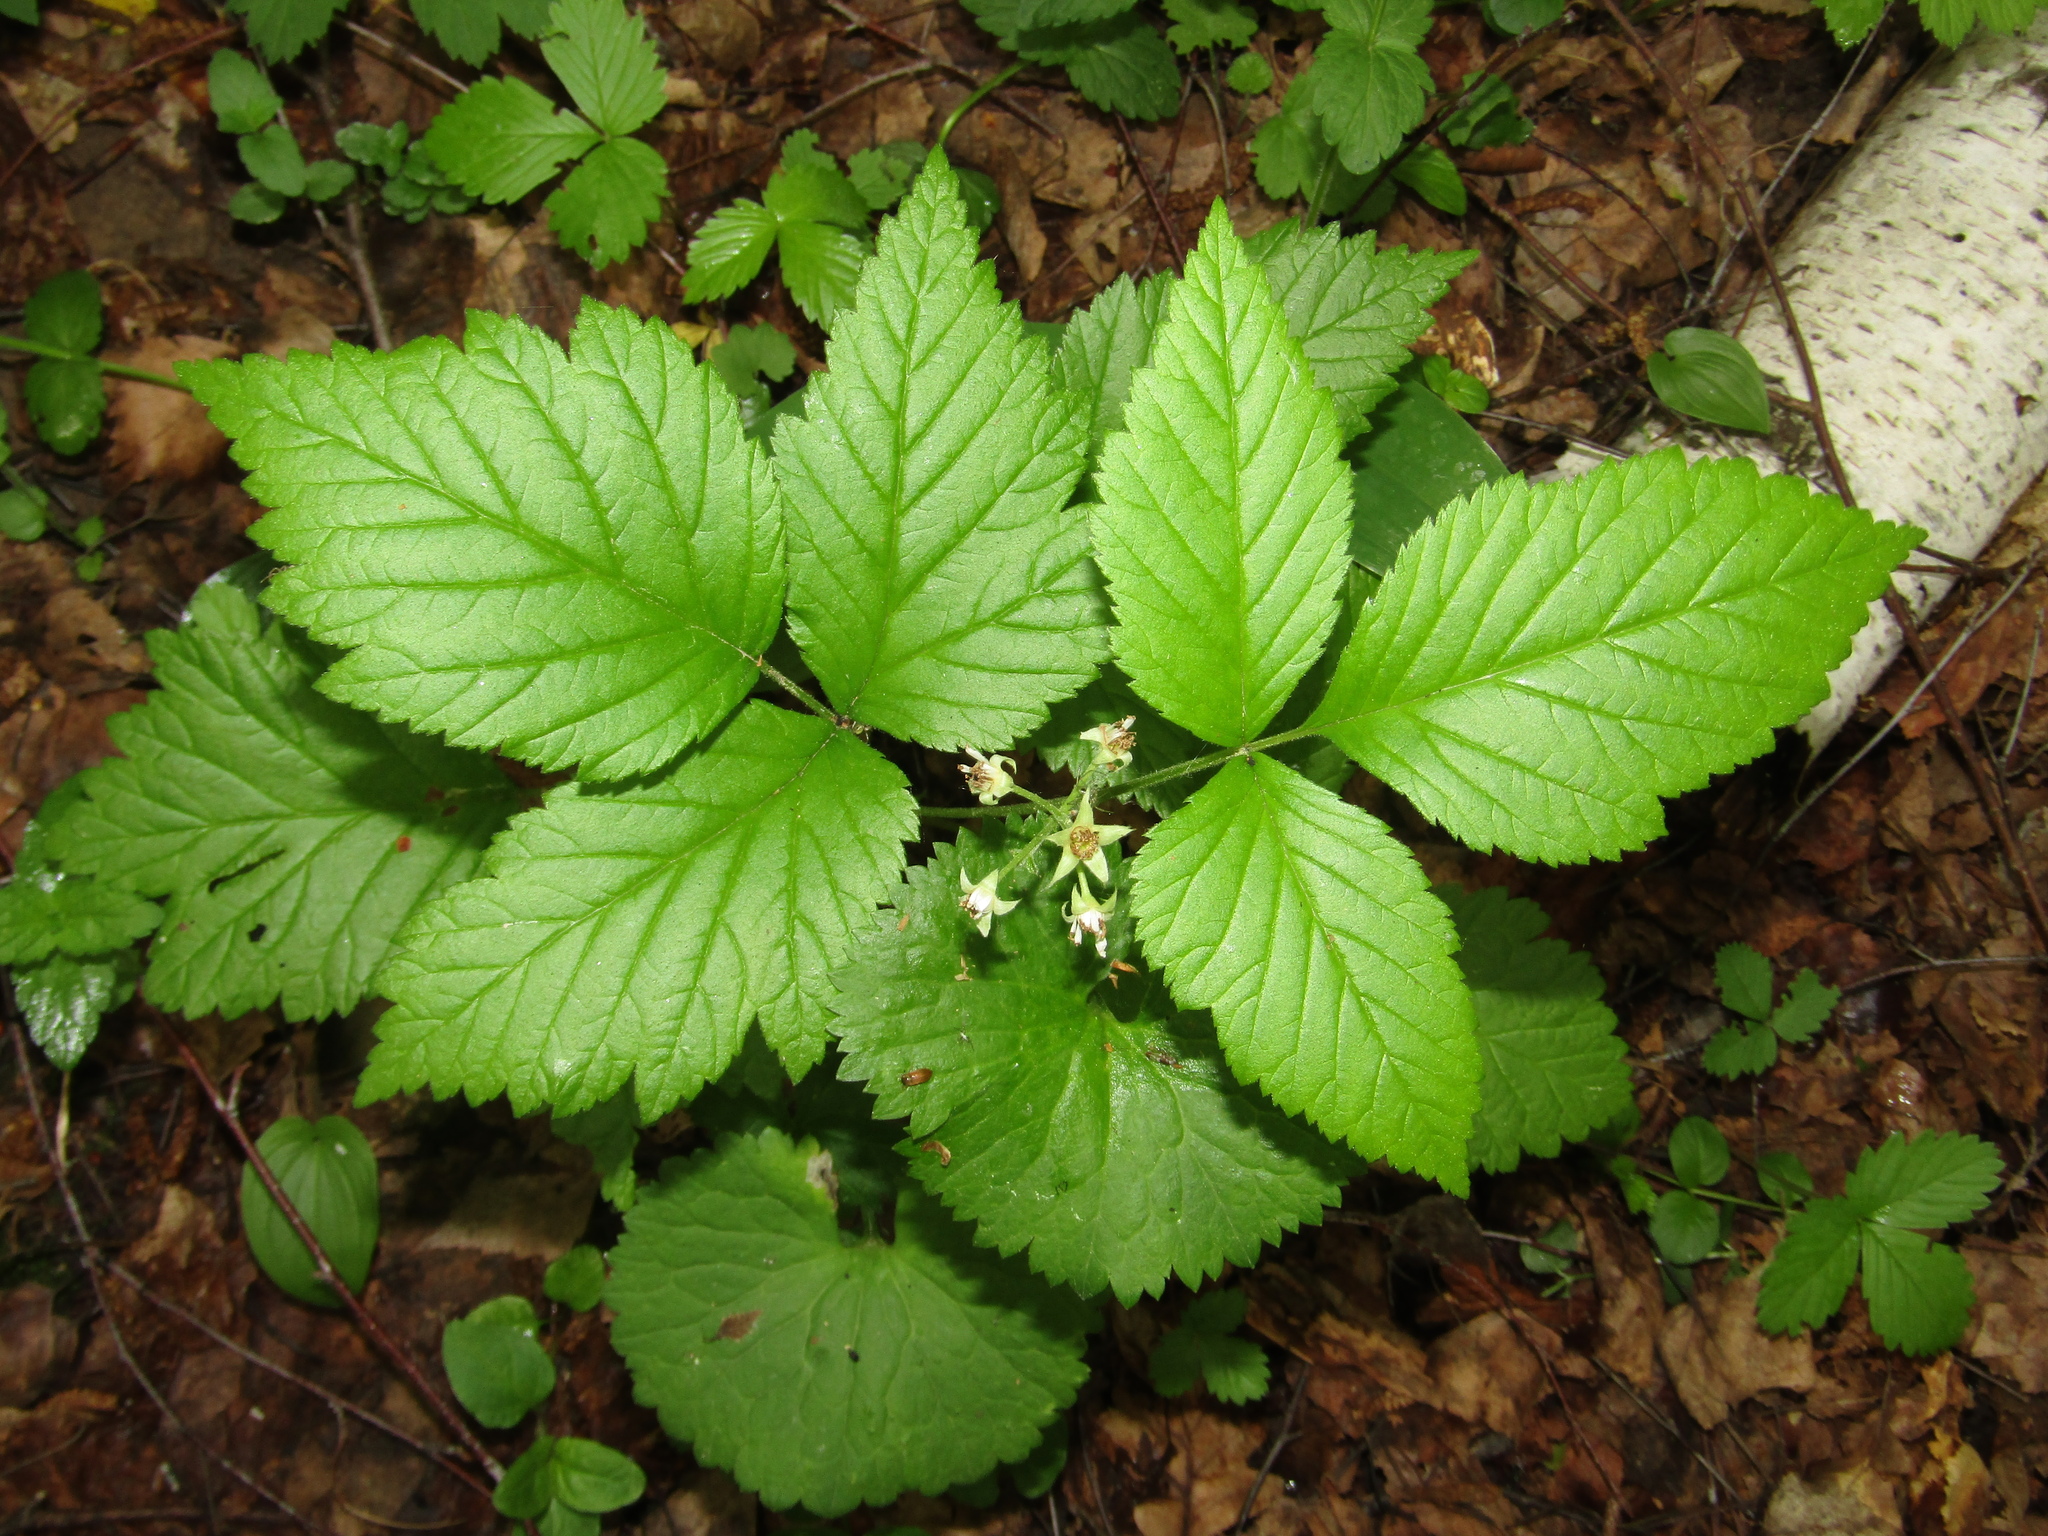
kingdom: Plantae
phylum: Tracheophyta
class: Magnoliopsida
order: Rosales
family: Rosaceae
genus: Rubus
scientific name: Rubus saxatilis
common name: Stone bramble
